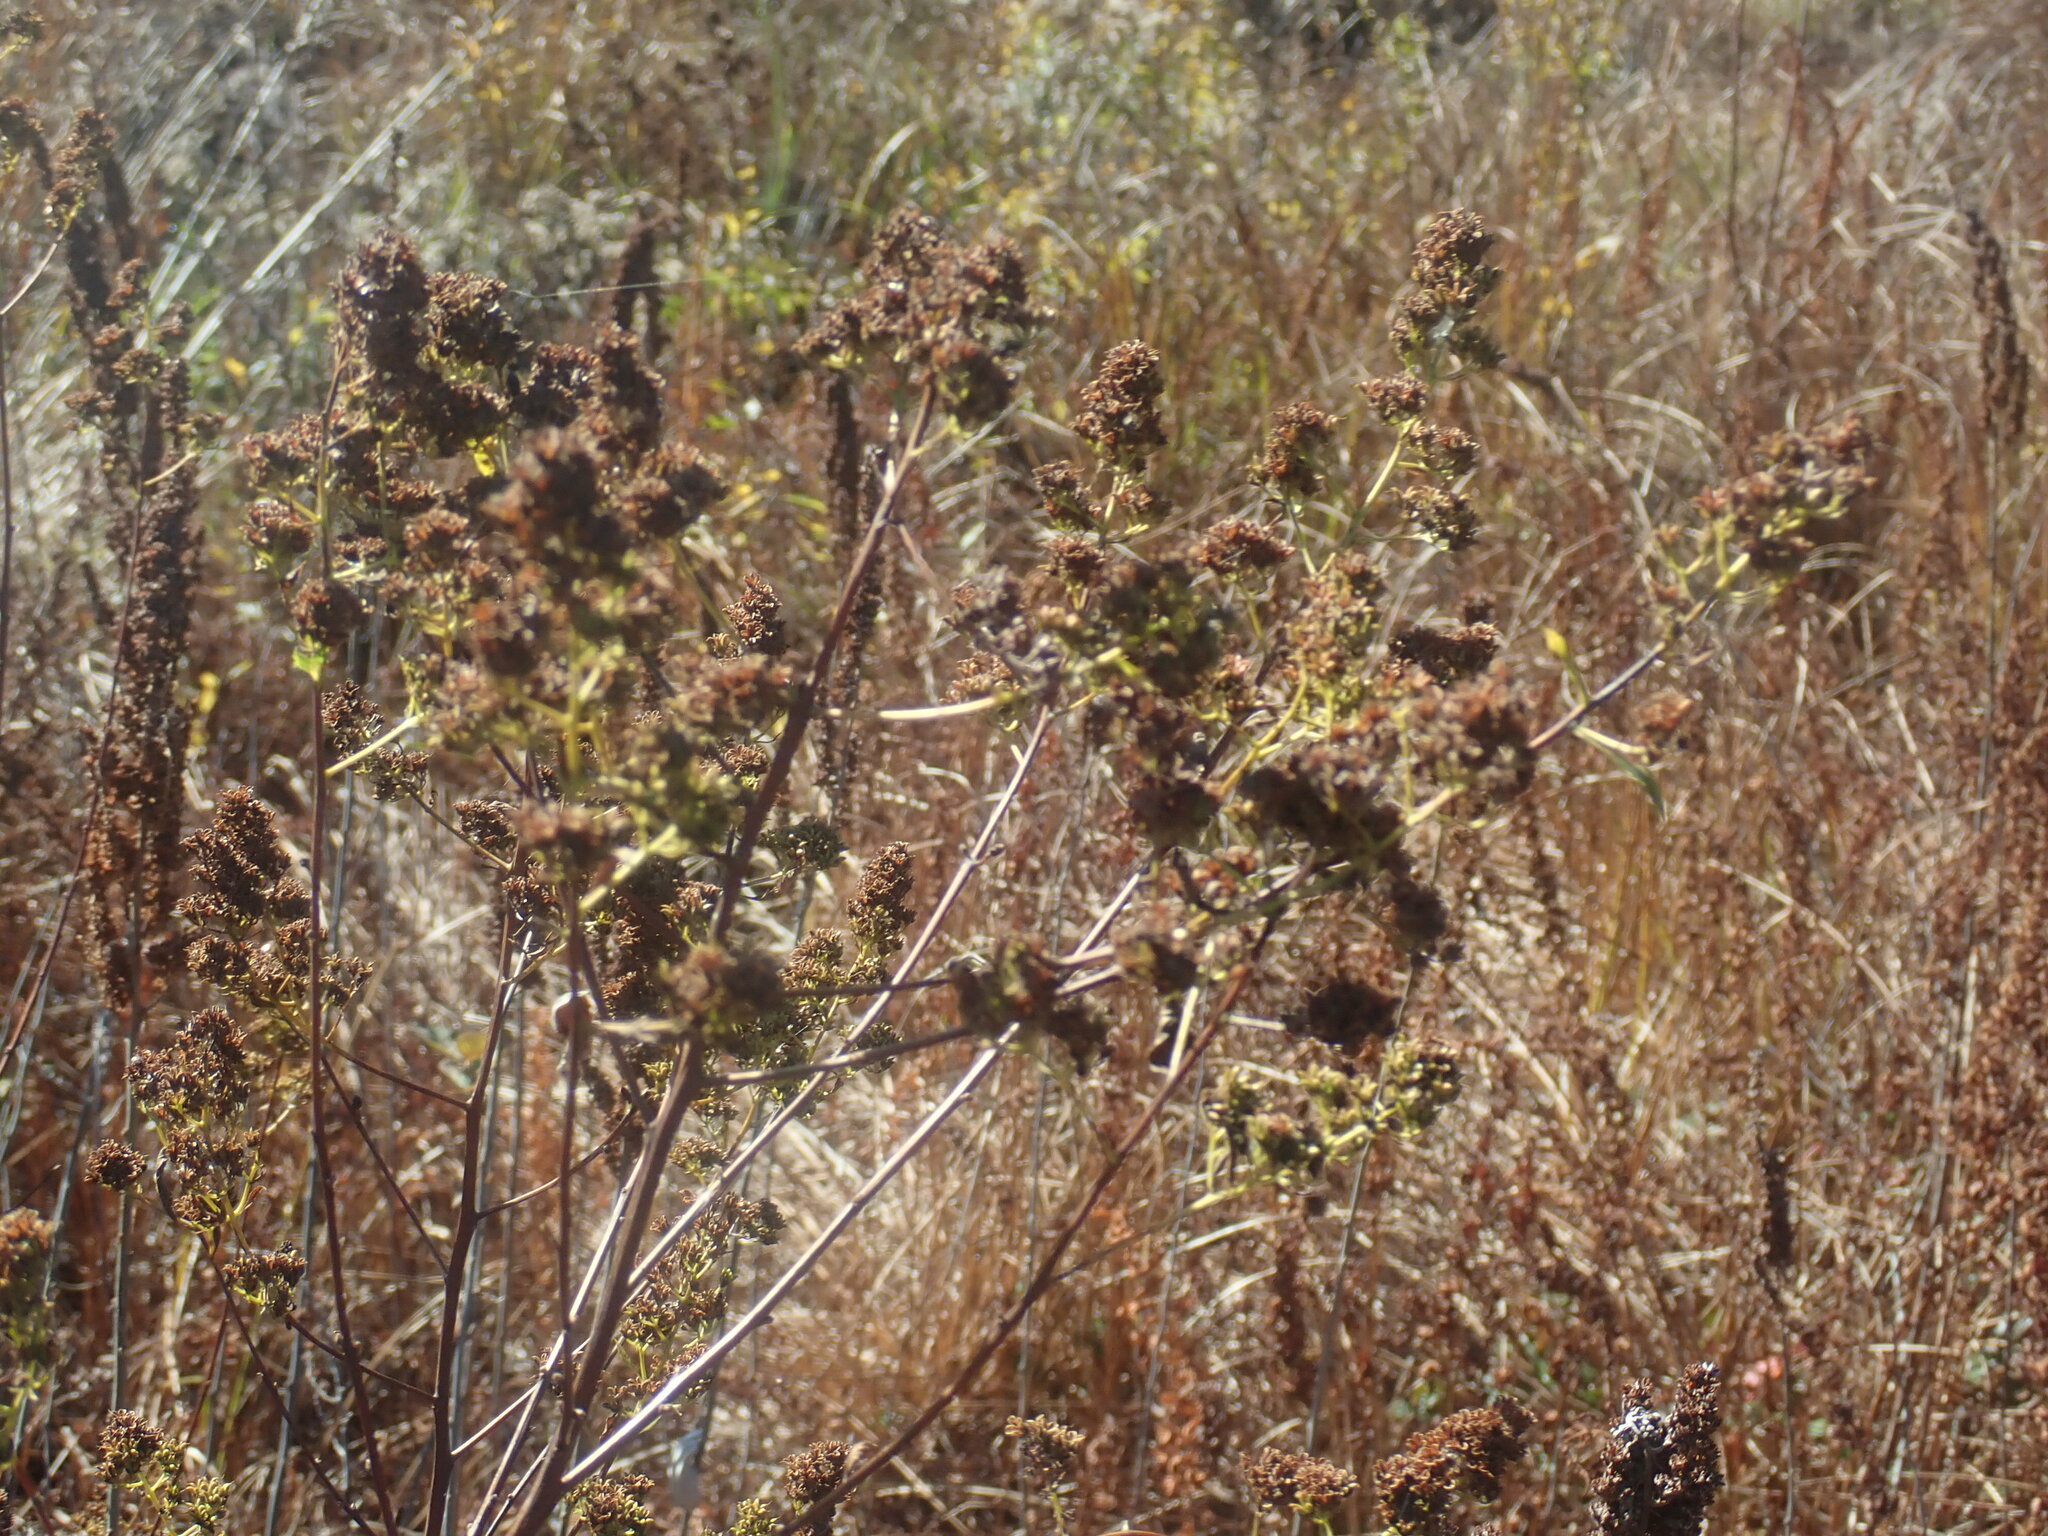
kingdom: Plantae
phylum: Tracheophyta
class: Magnoliopsida
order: Rosales
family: Rosaceae
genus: Spiraea
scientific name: Spiraea alba
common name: Pale bridewort
